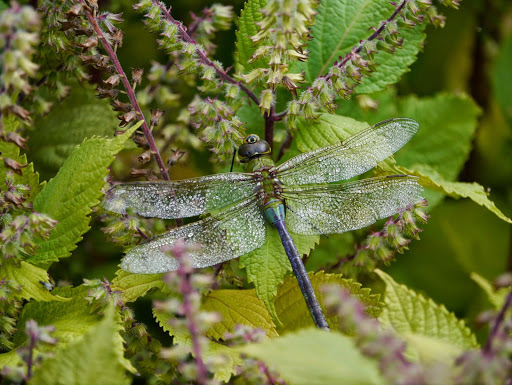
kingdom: Animalia
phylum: Arthropoda
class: Insecta
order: Odonata
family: Aeshnidae
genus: Anax
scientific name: Anax junius
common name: Common green darner
